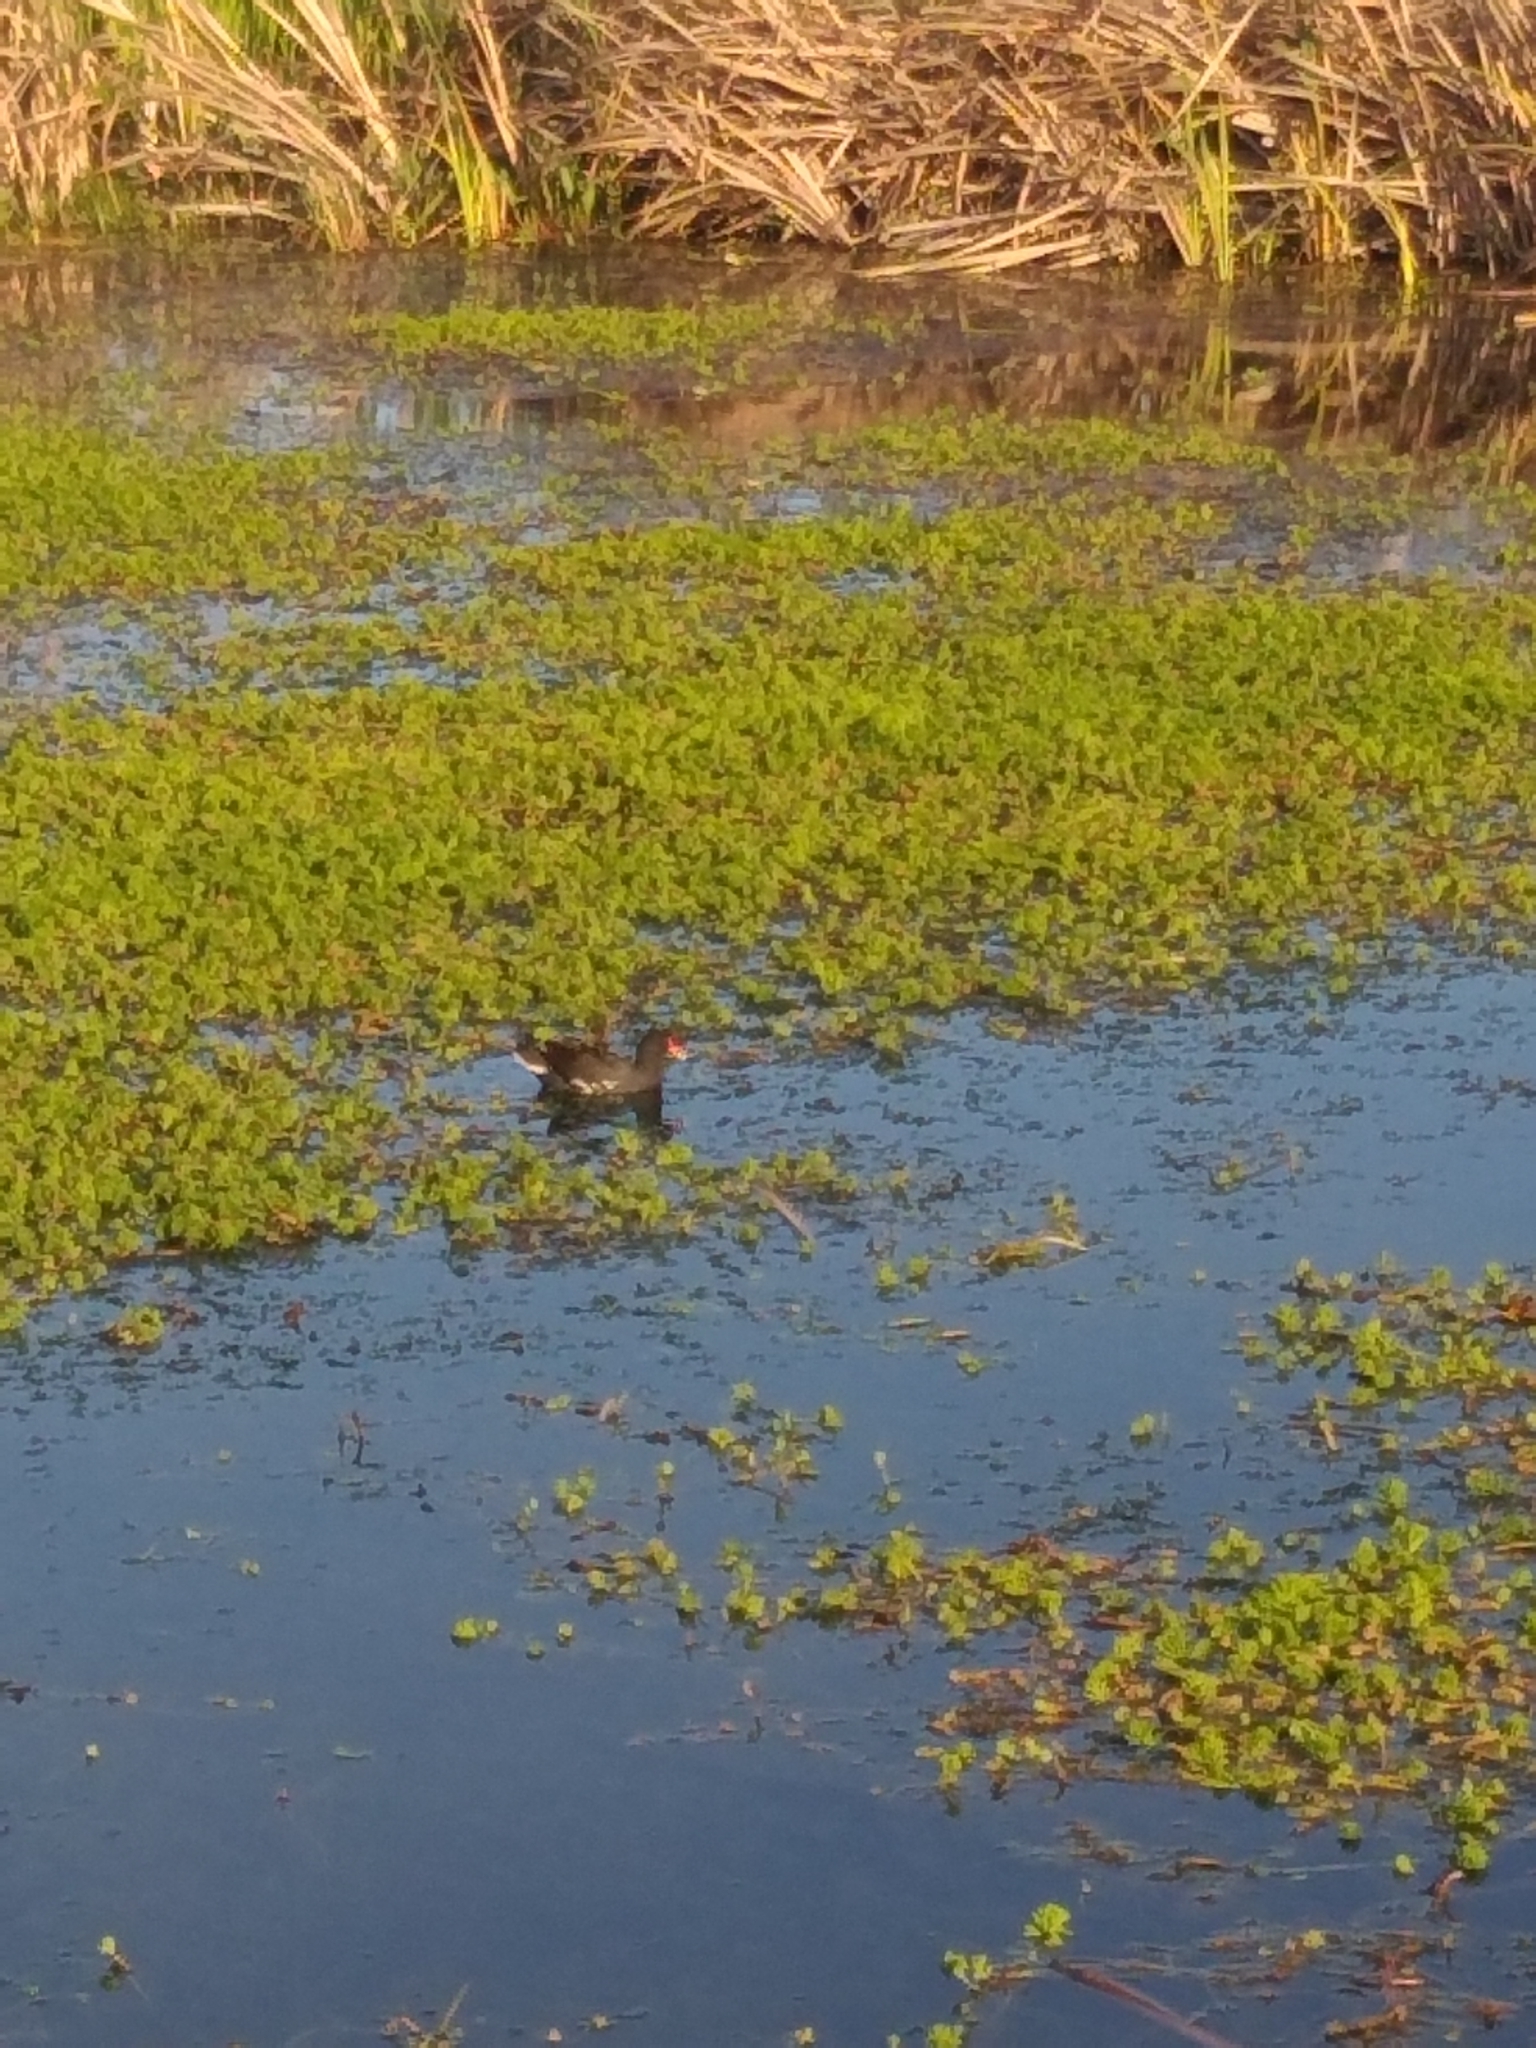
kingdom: Animalia
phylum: Chordata
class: Aves
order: Gruiformes
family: Rallidae
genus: Gallinula
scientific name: Gallinula chloropus
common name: Common moorhen
